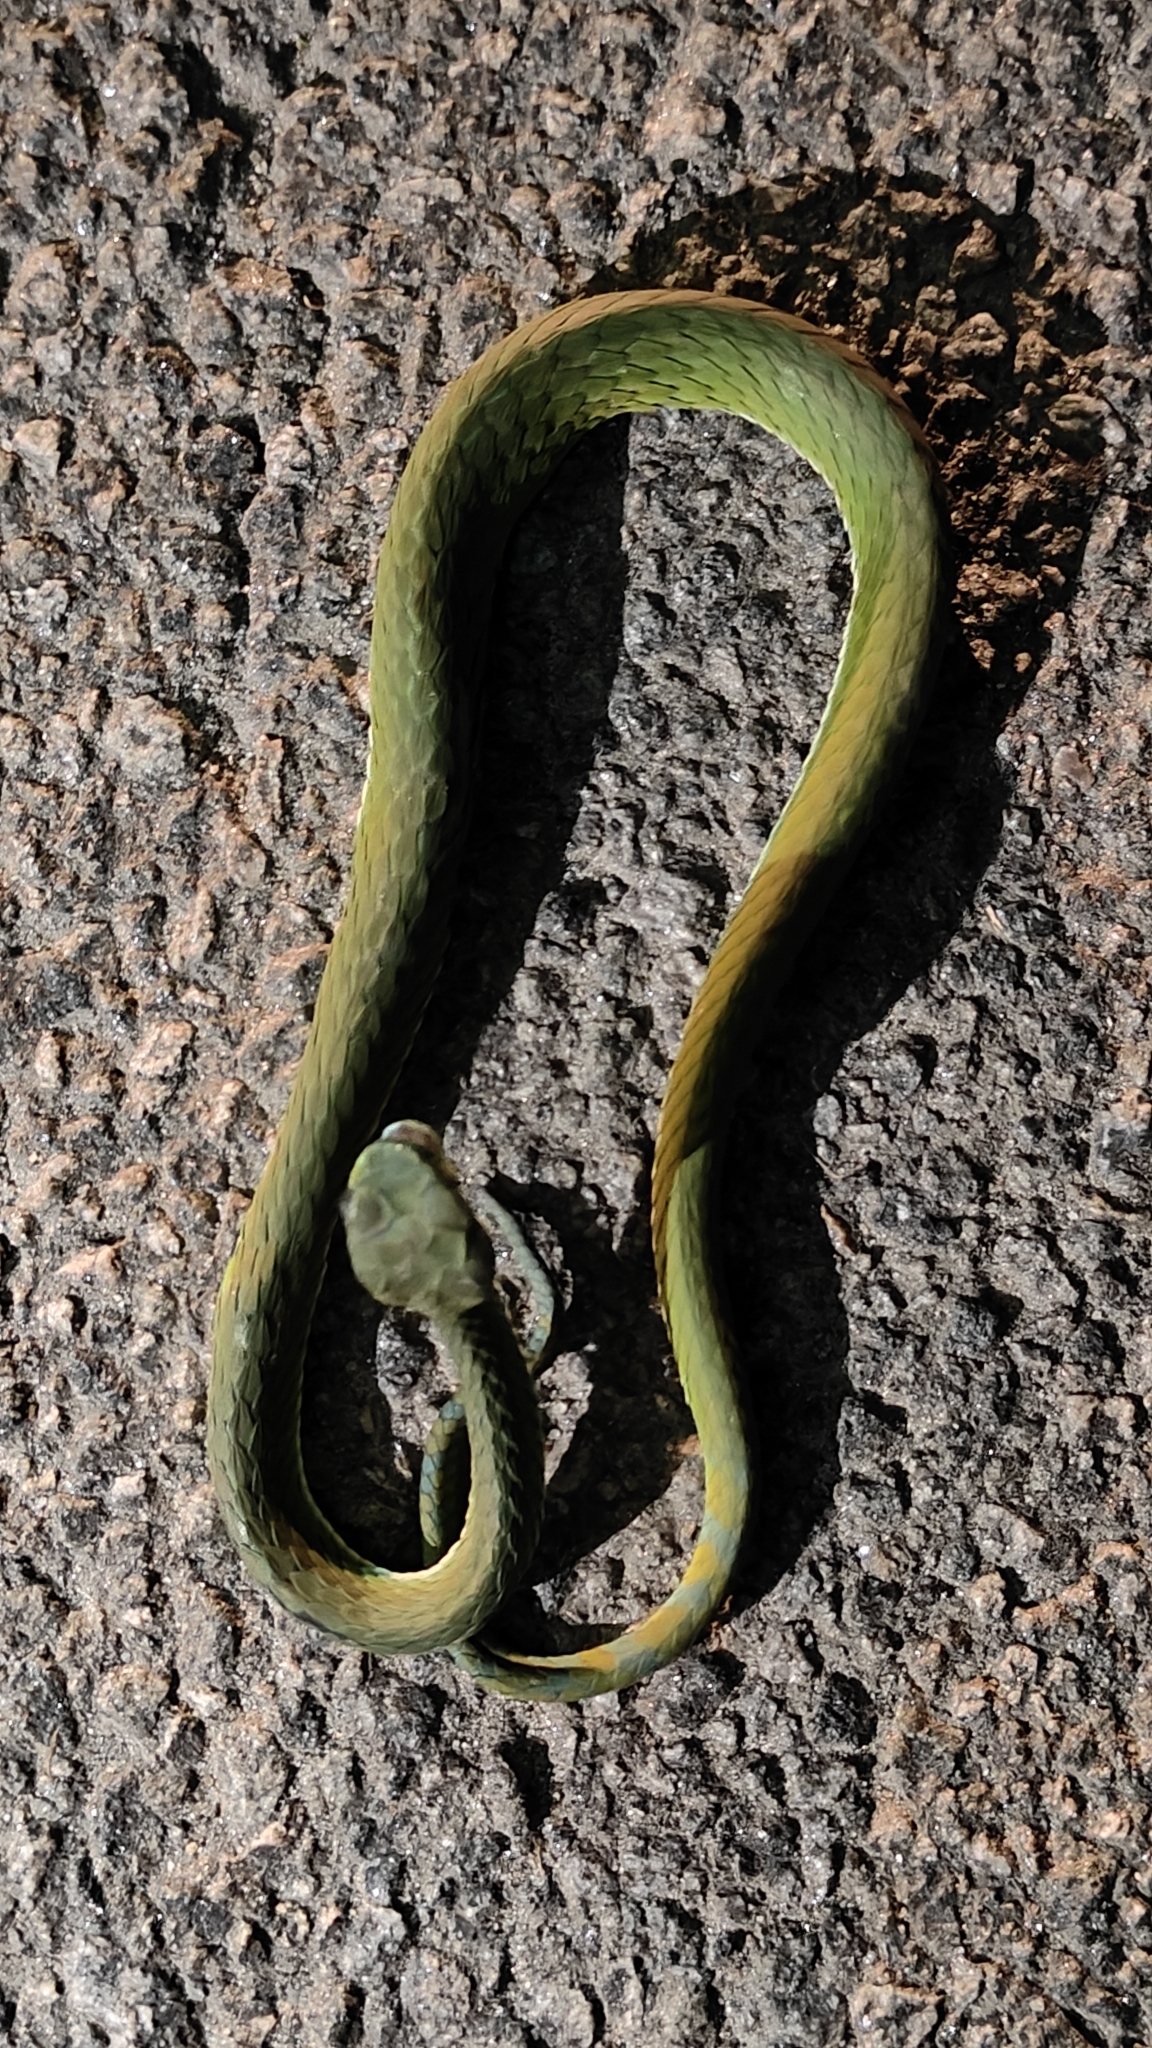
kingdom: Animalia
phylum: Chordata
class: Squamata
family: Viperidae
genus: Craspedocephalus
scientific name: Craspedocephalus macrolepis
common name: Large-scaled pit viper
